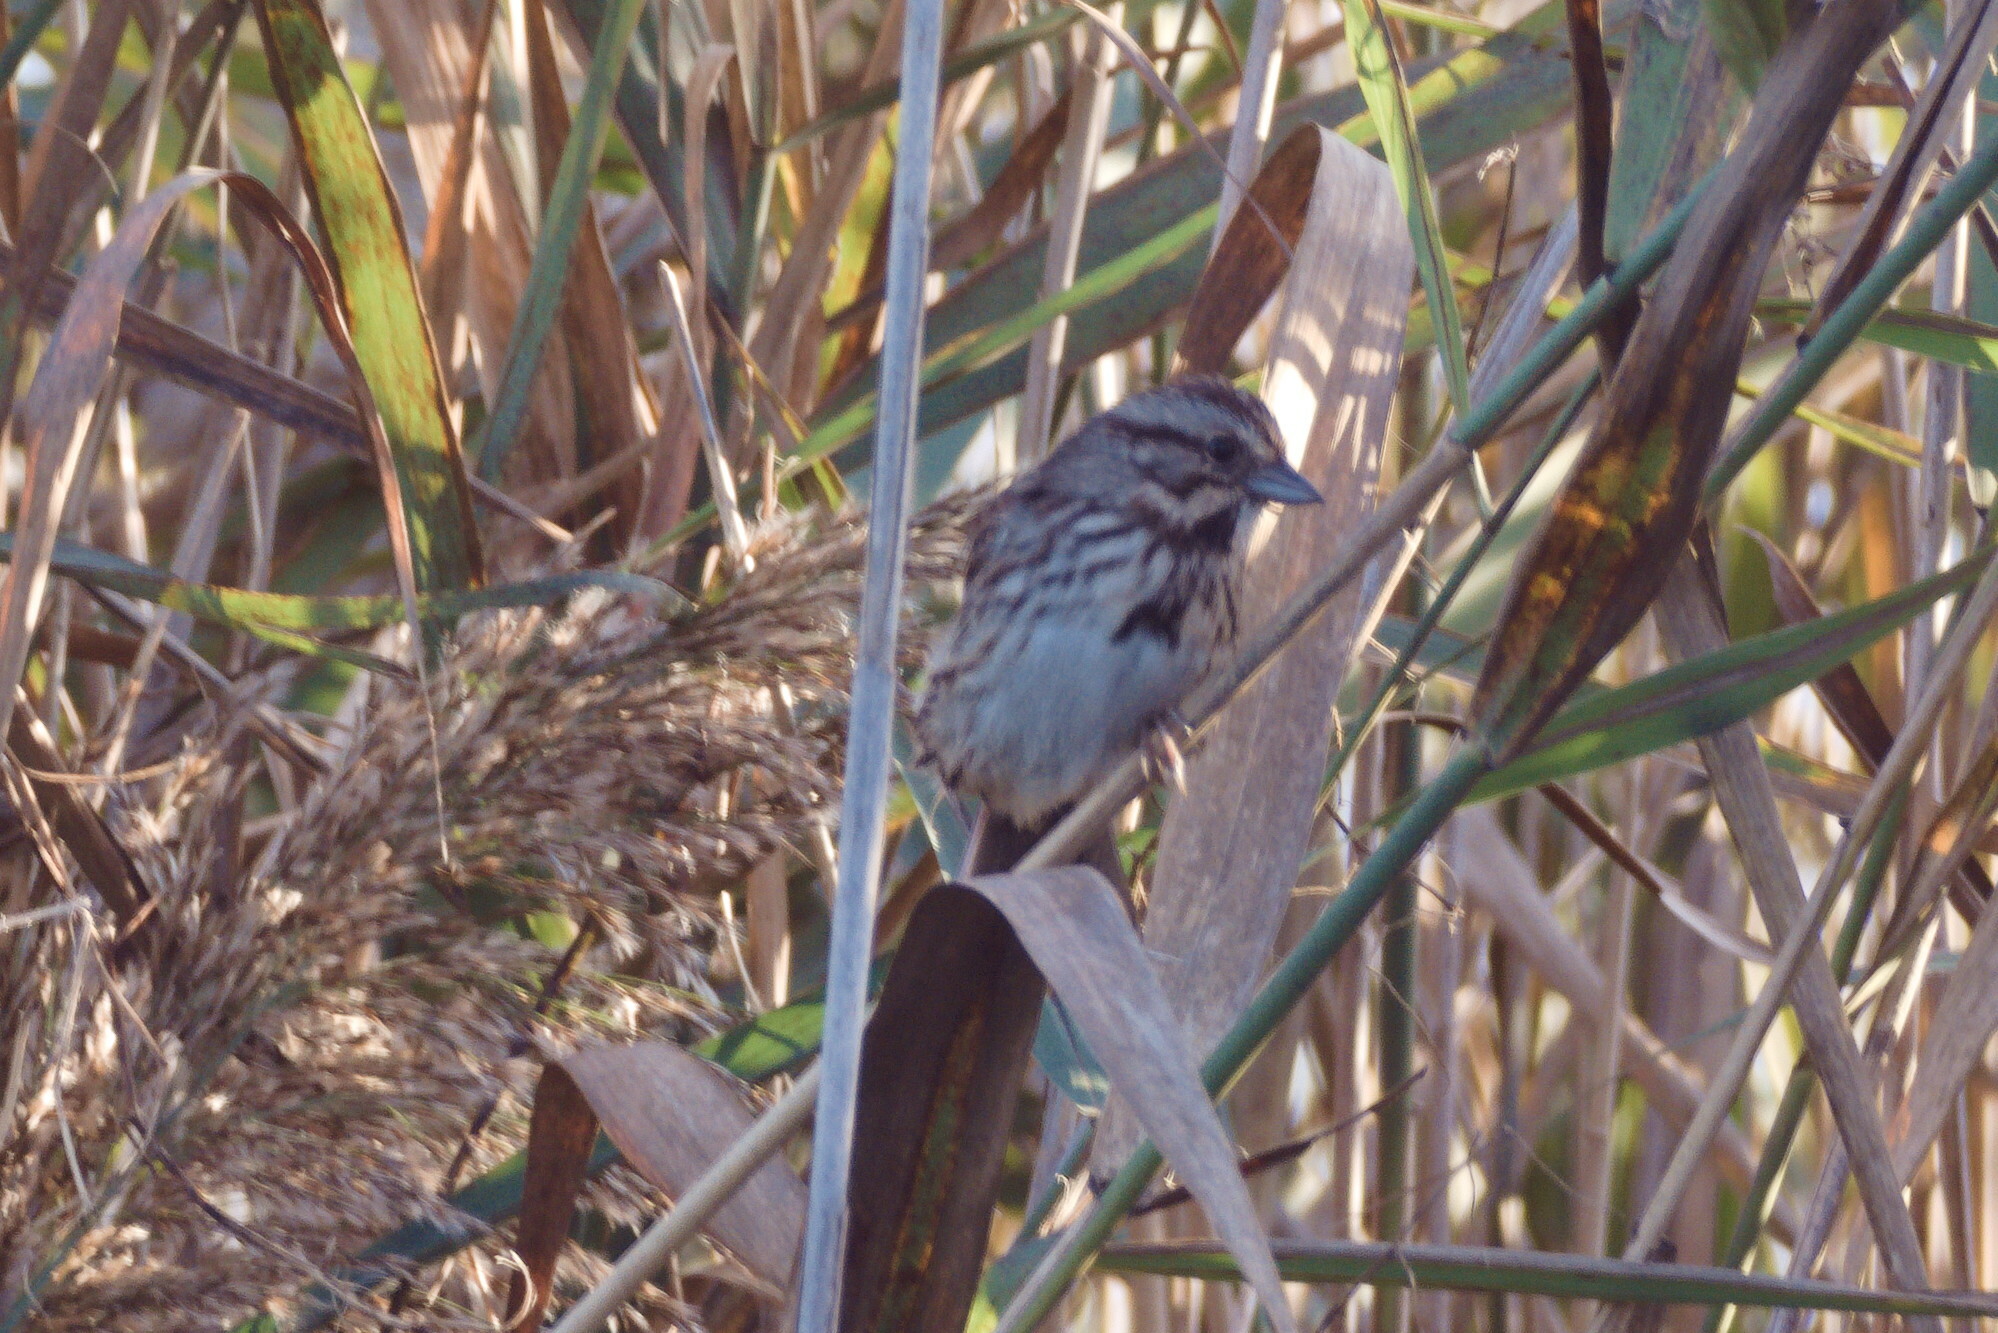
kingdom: Animalia
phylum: Chordata
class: Aves
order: Passeriformes
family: Passerellidae
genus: Melospiza
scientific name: Melospiza melodia
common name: Song sparrow
